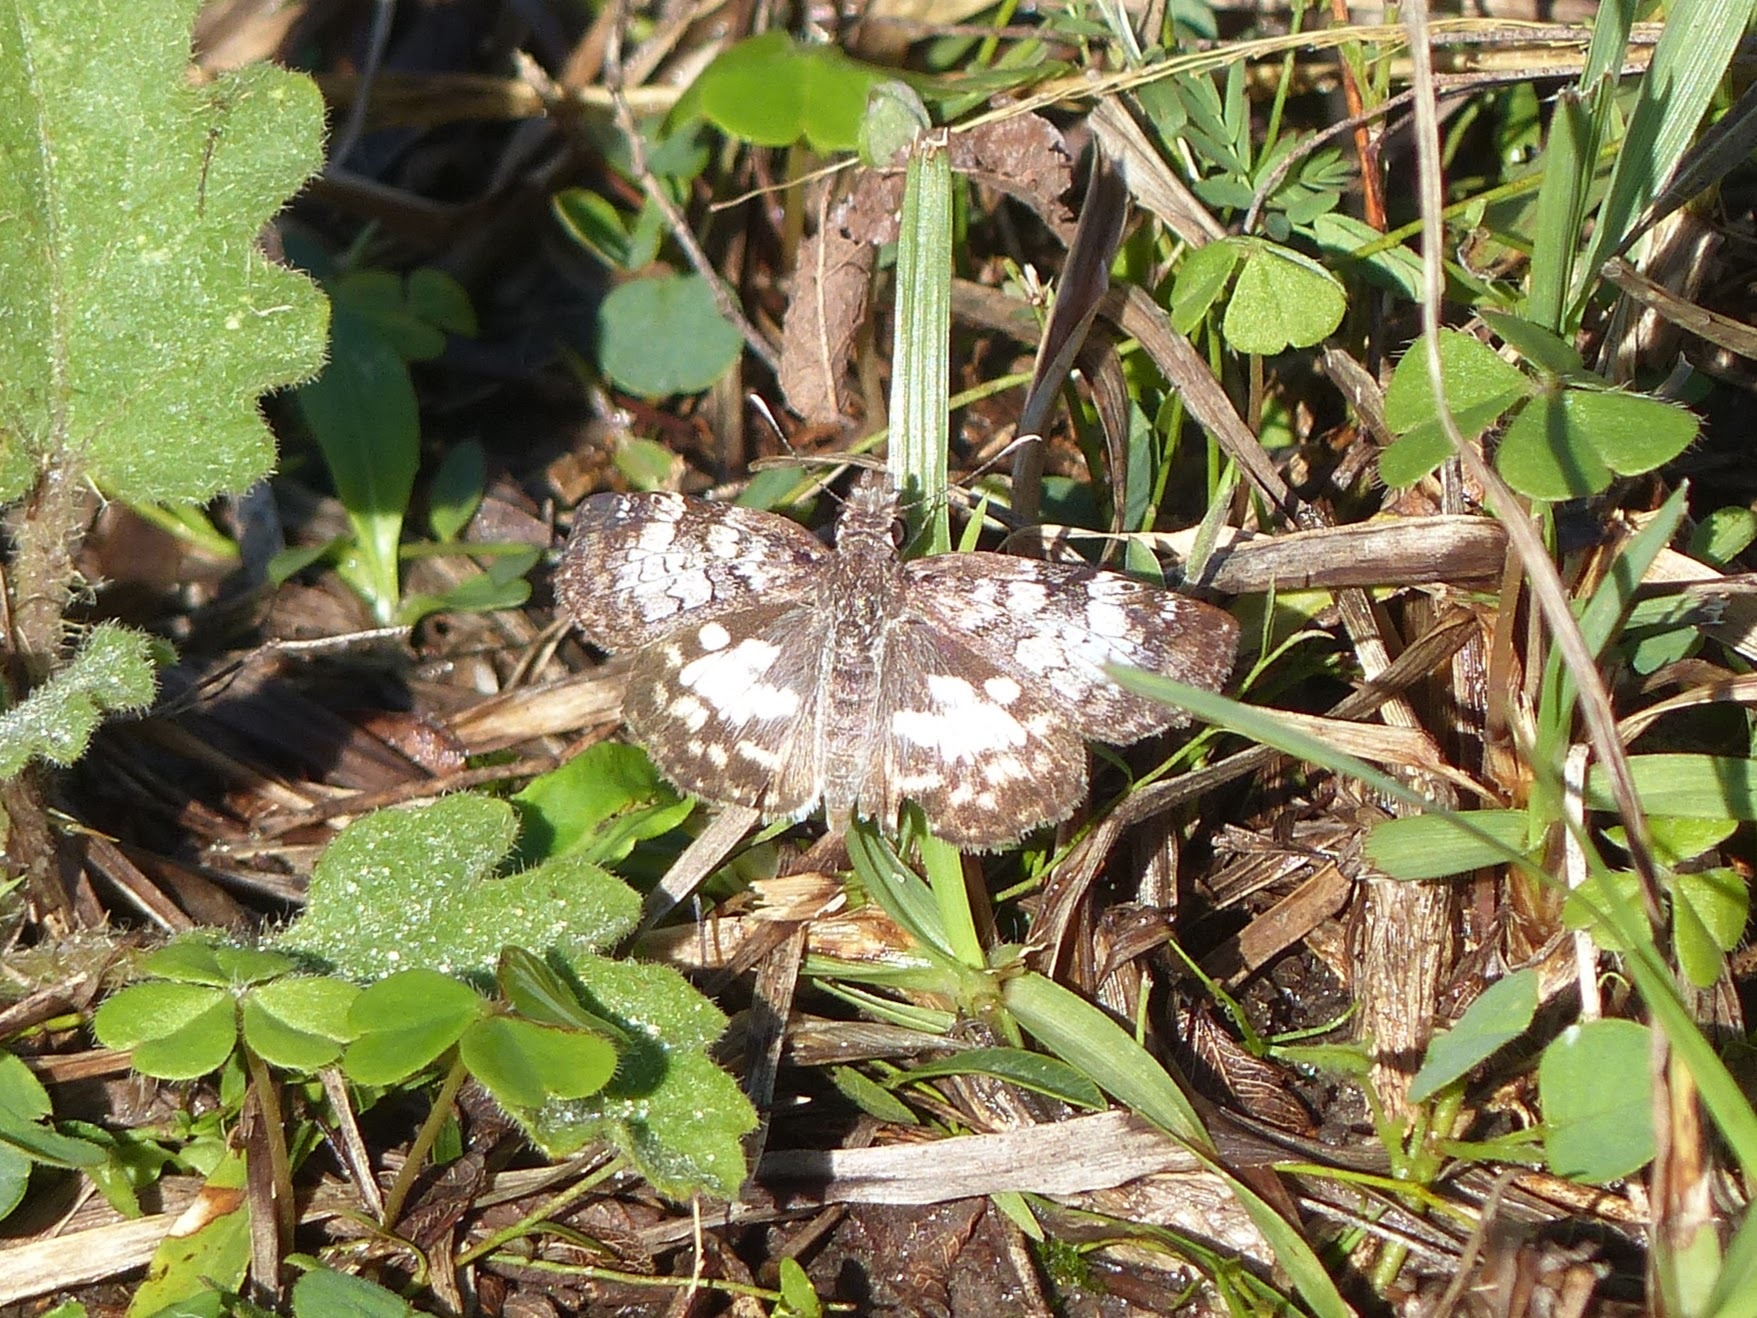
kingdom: Animalia
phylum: Arthropoda
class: Insecta
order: Lepidoptera
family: Hesperiidae
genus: Chiomara
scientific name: Chiomara asychis
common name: White-patterned skipper
